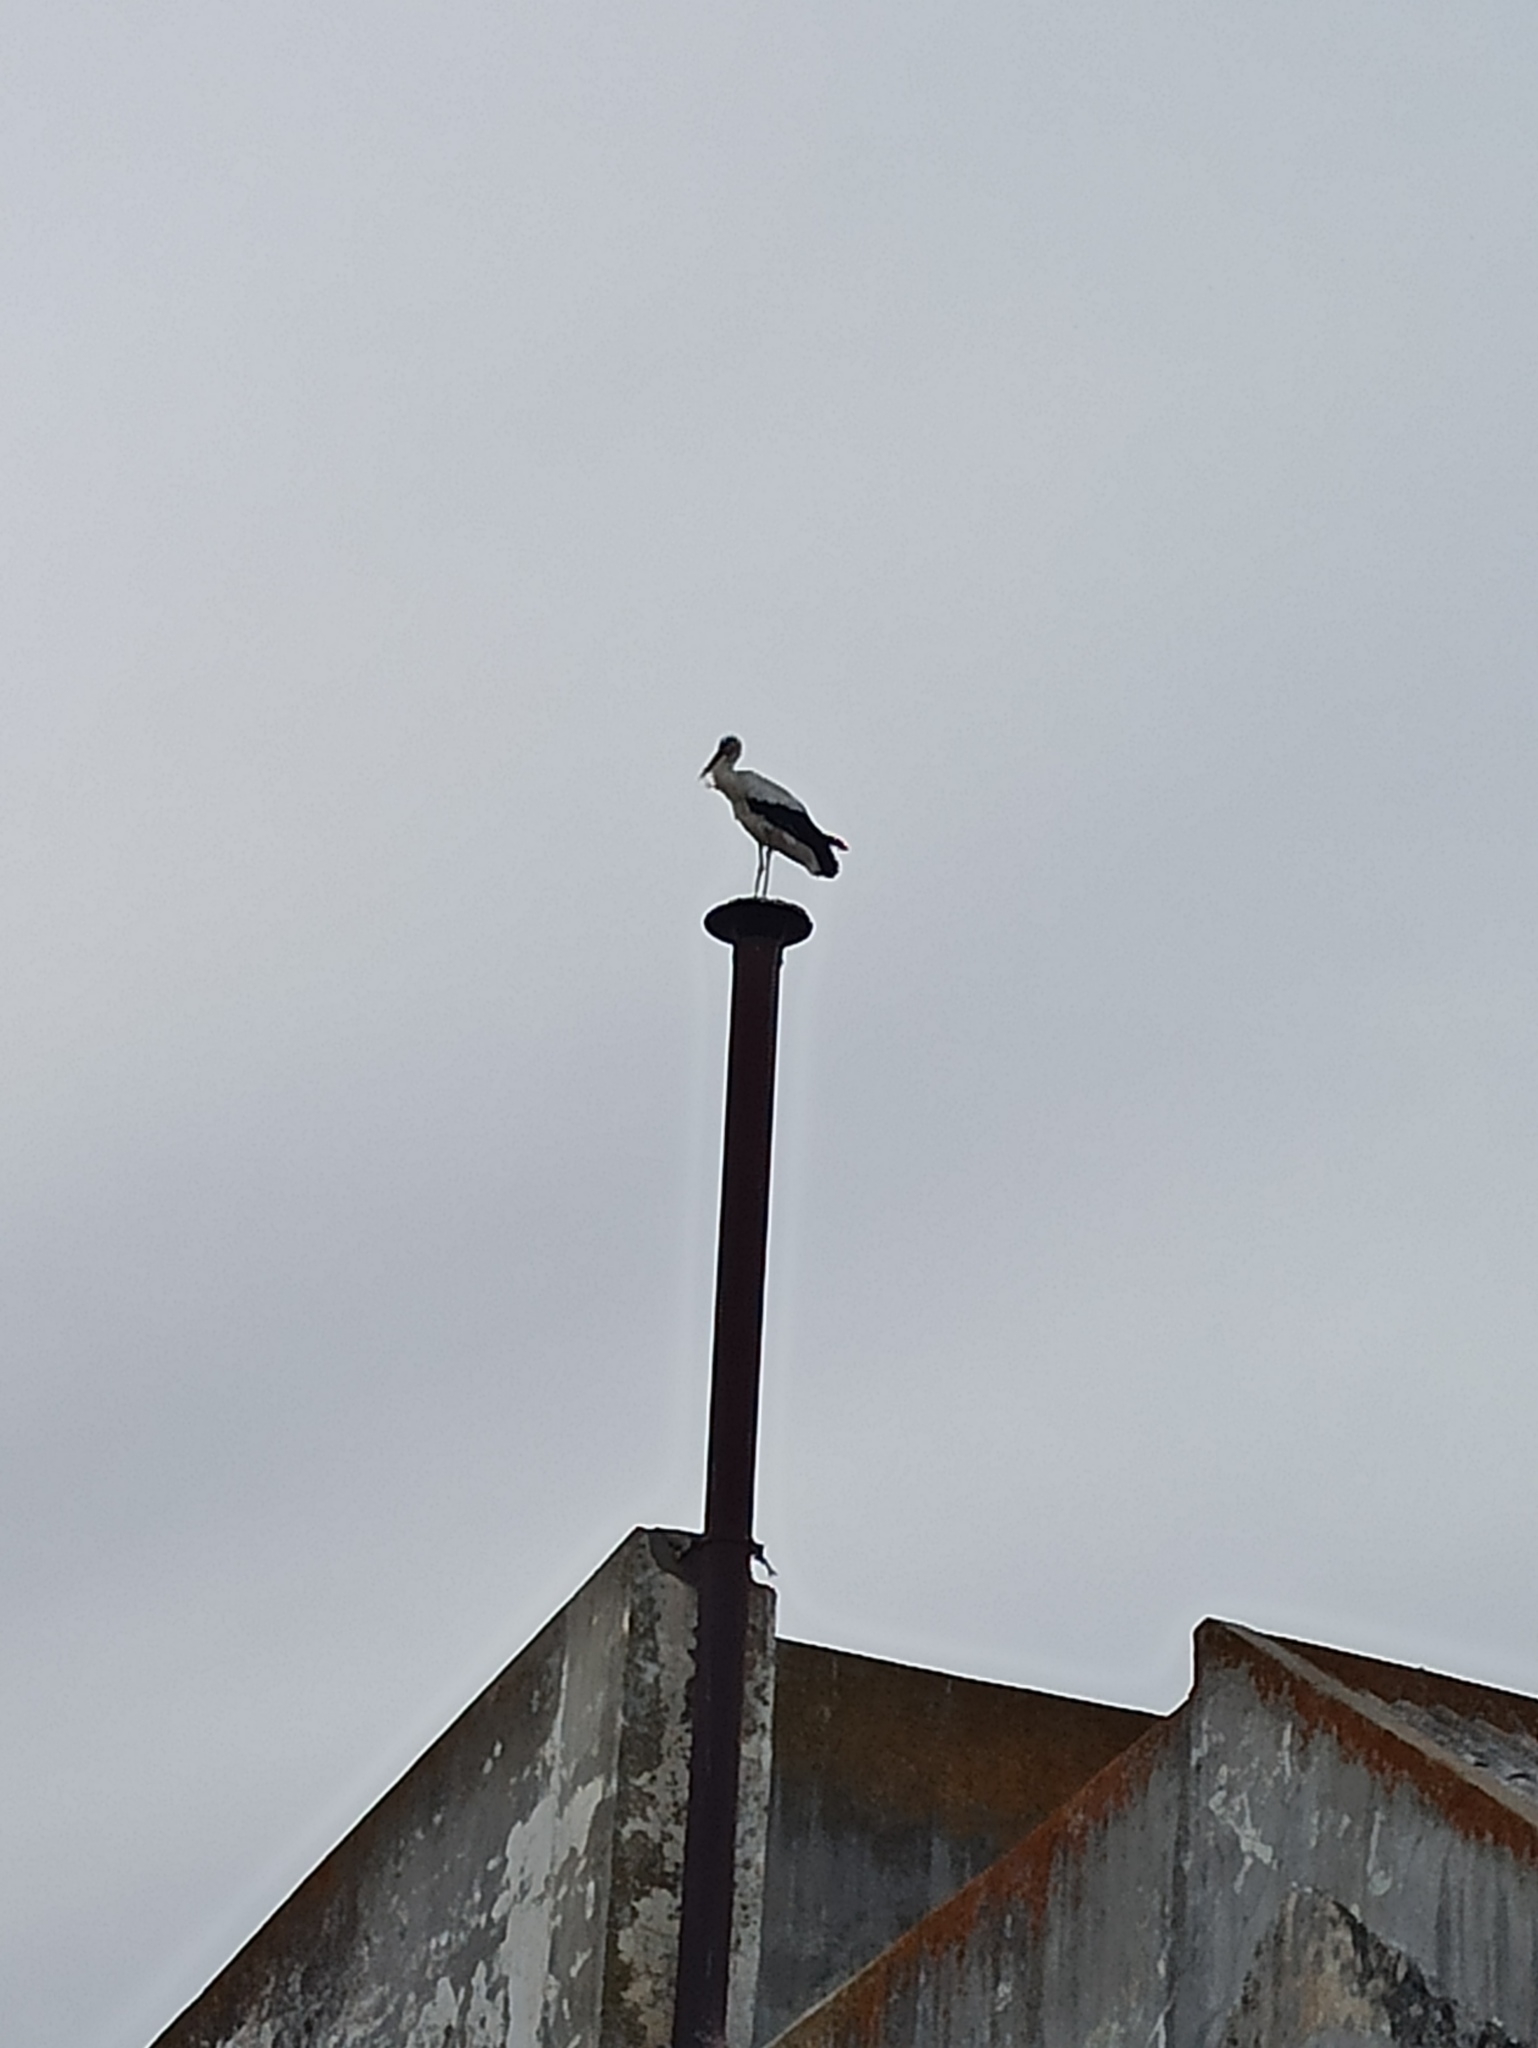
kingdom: Animalia
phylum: Chordata
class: Aves
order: Ciconiiformes
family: Ciconiidae
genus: Ciconia
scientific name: Ciconia ciconia
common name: White stork
